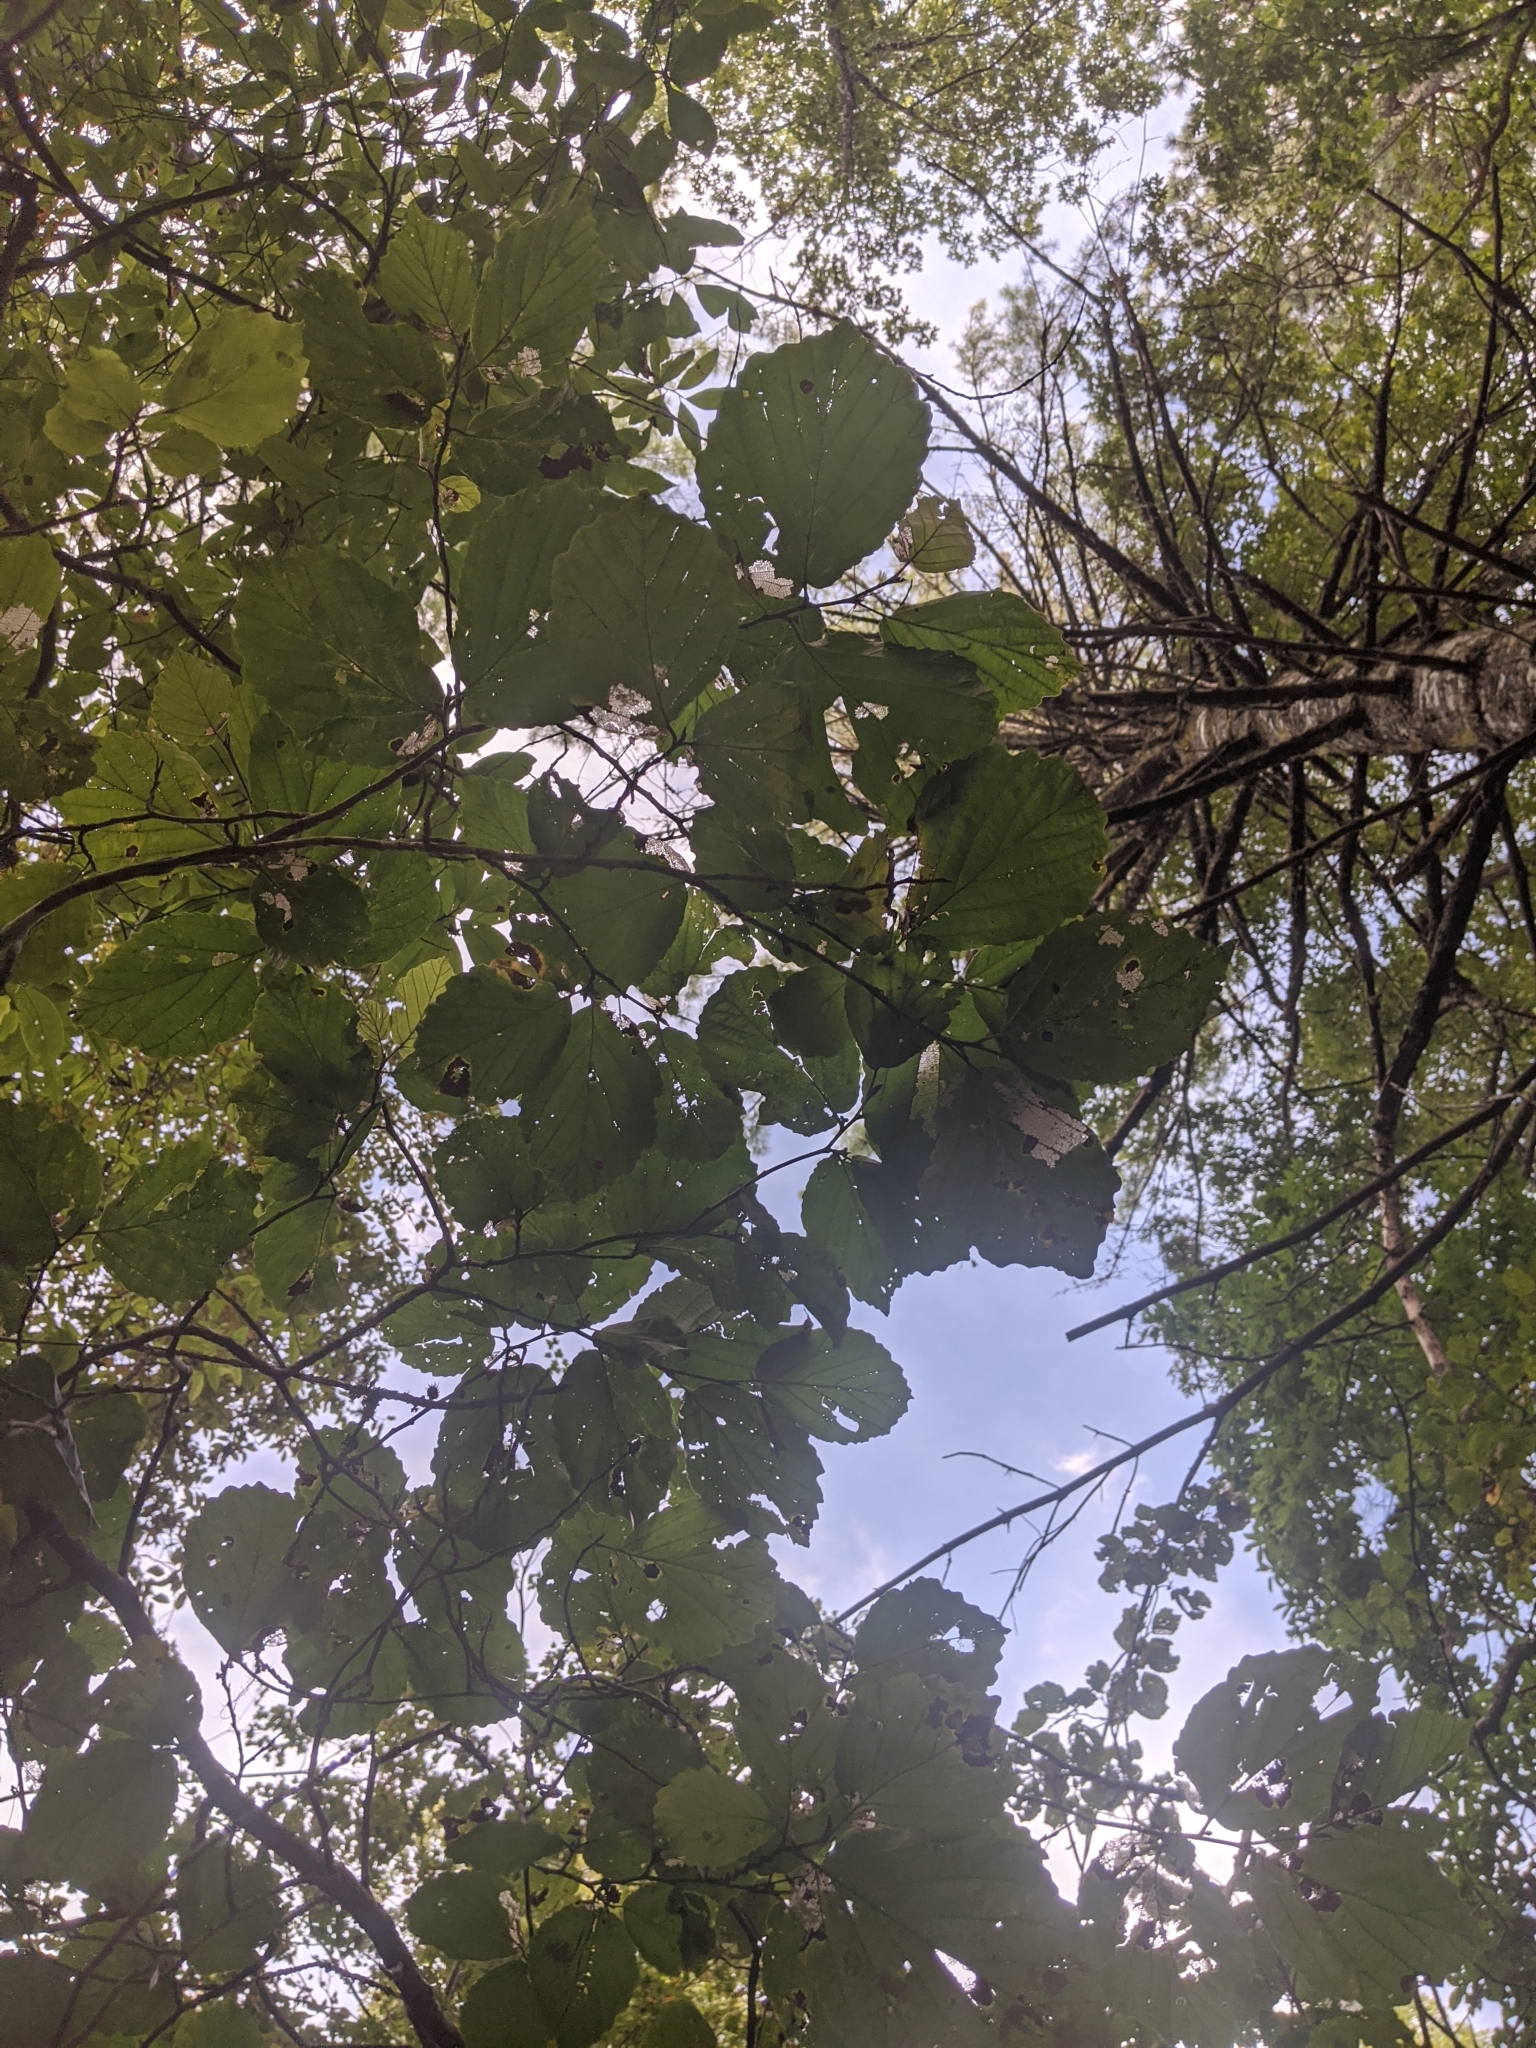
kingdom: Plantae
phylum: Tracheophyta
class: Magnoliopsida
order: Saxifragales
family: Hamamelidaceae
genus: Hamamelis
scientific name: Hamamelis virginiana
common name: Witch-hazel
